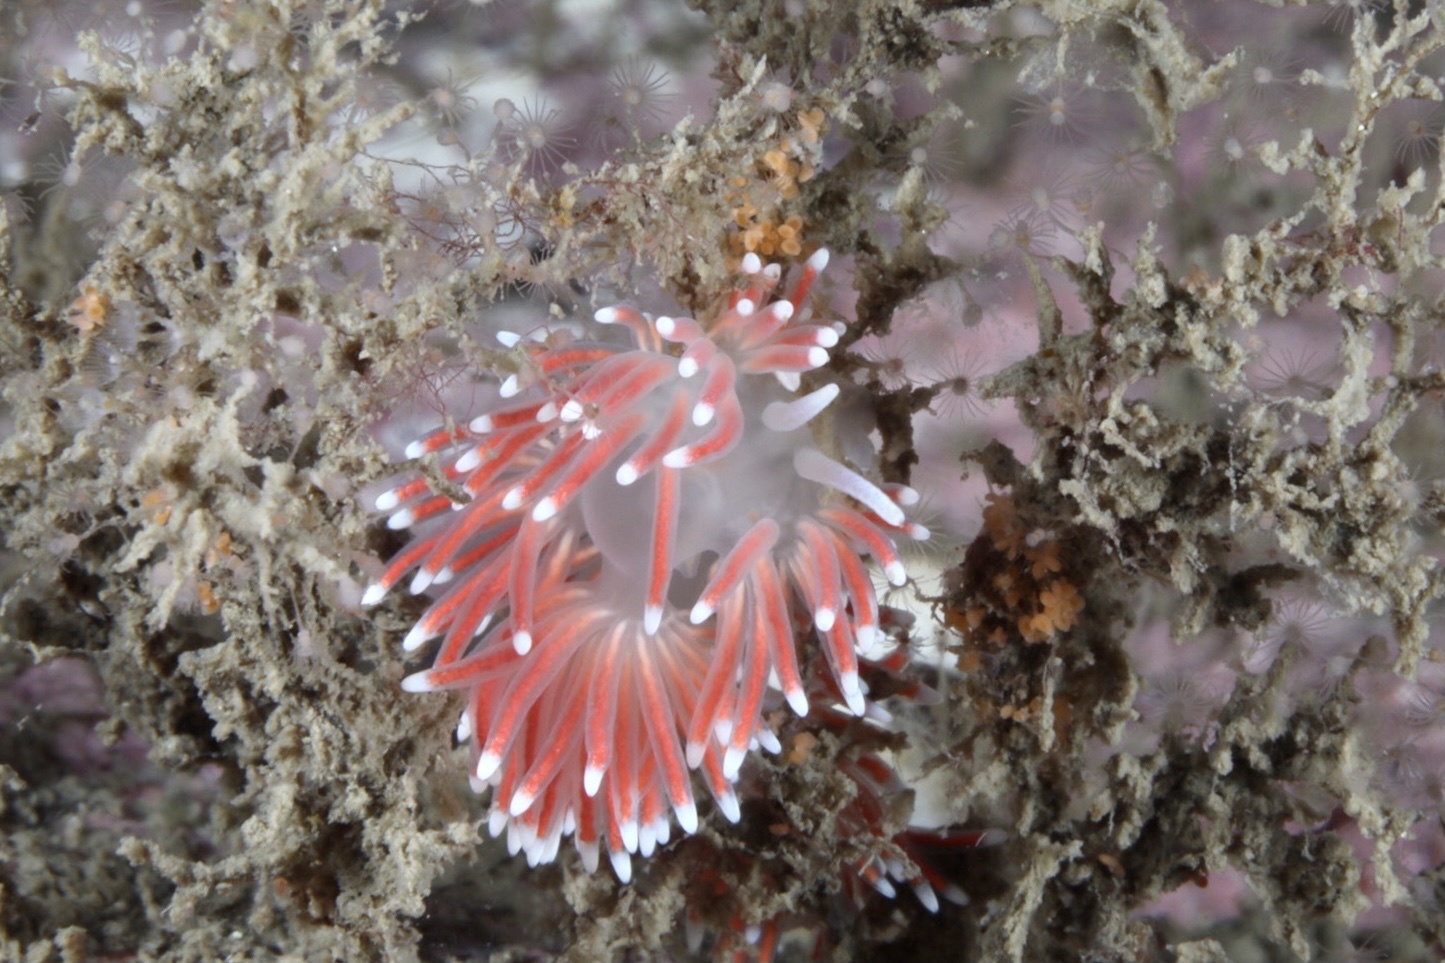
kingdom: Animalia
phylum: Mollusca
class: Gastropoda
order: Nudibranchia
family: Flabellinidae
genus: Carronella
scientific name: Carronella pellucida
